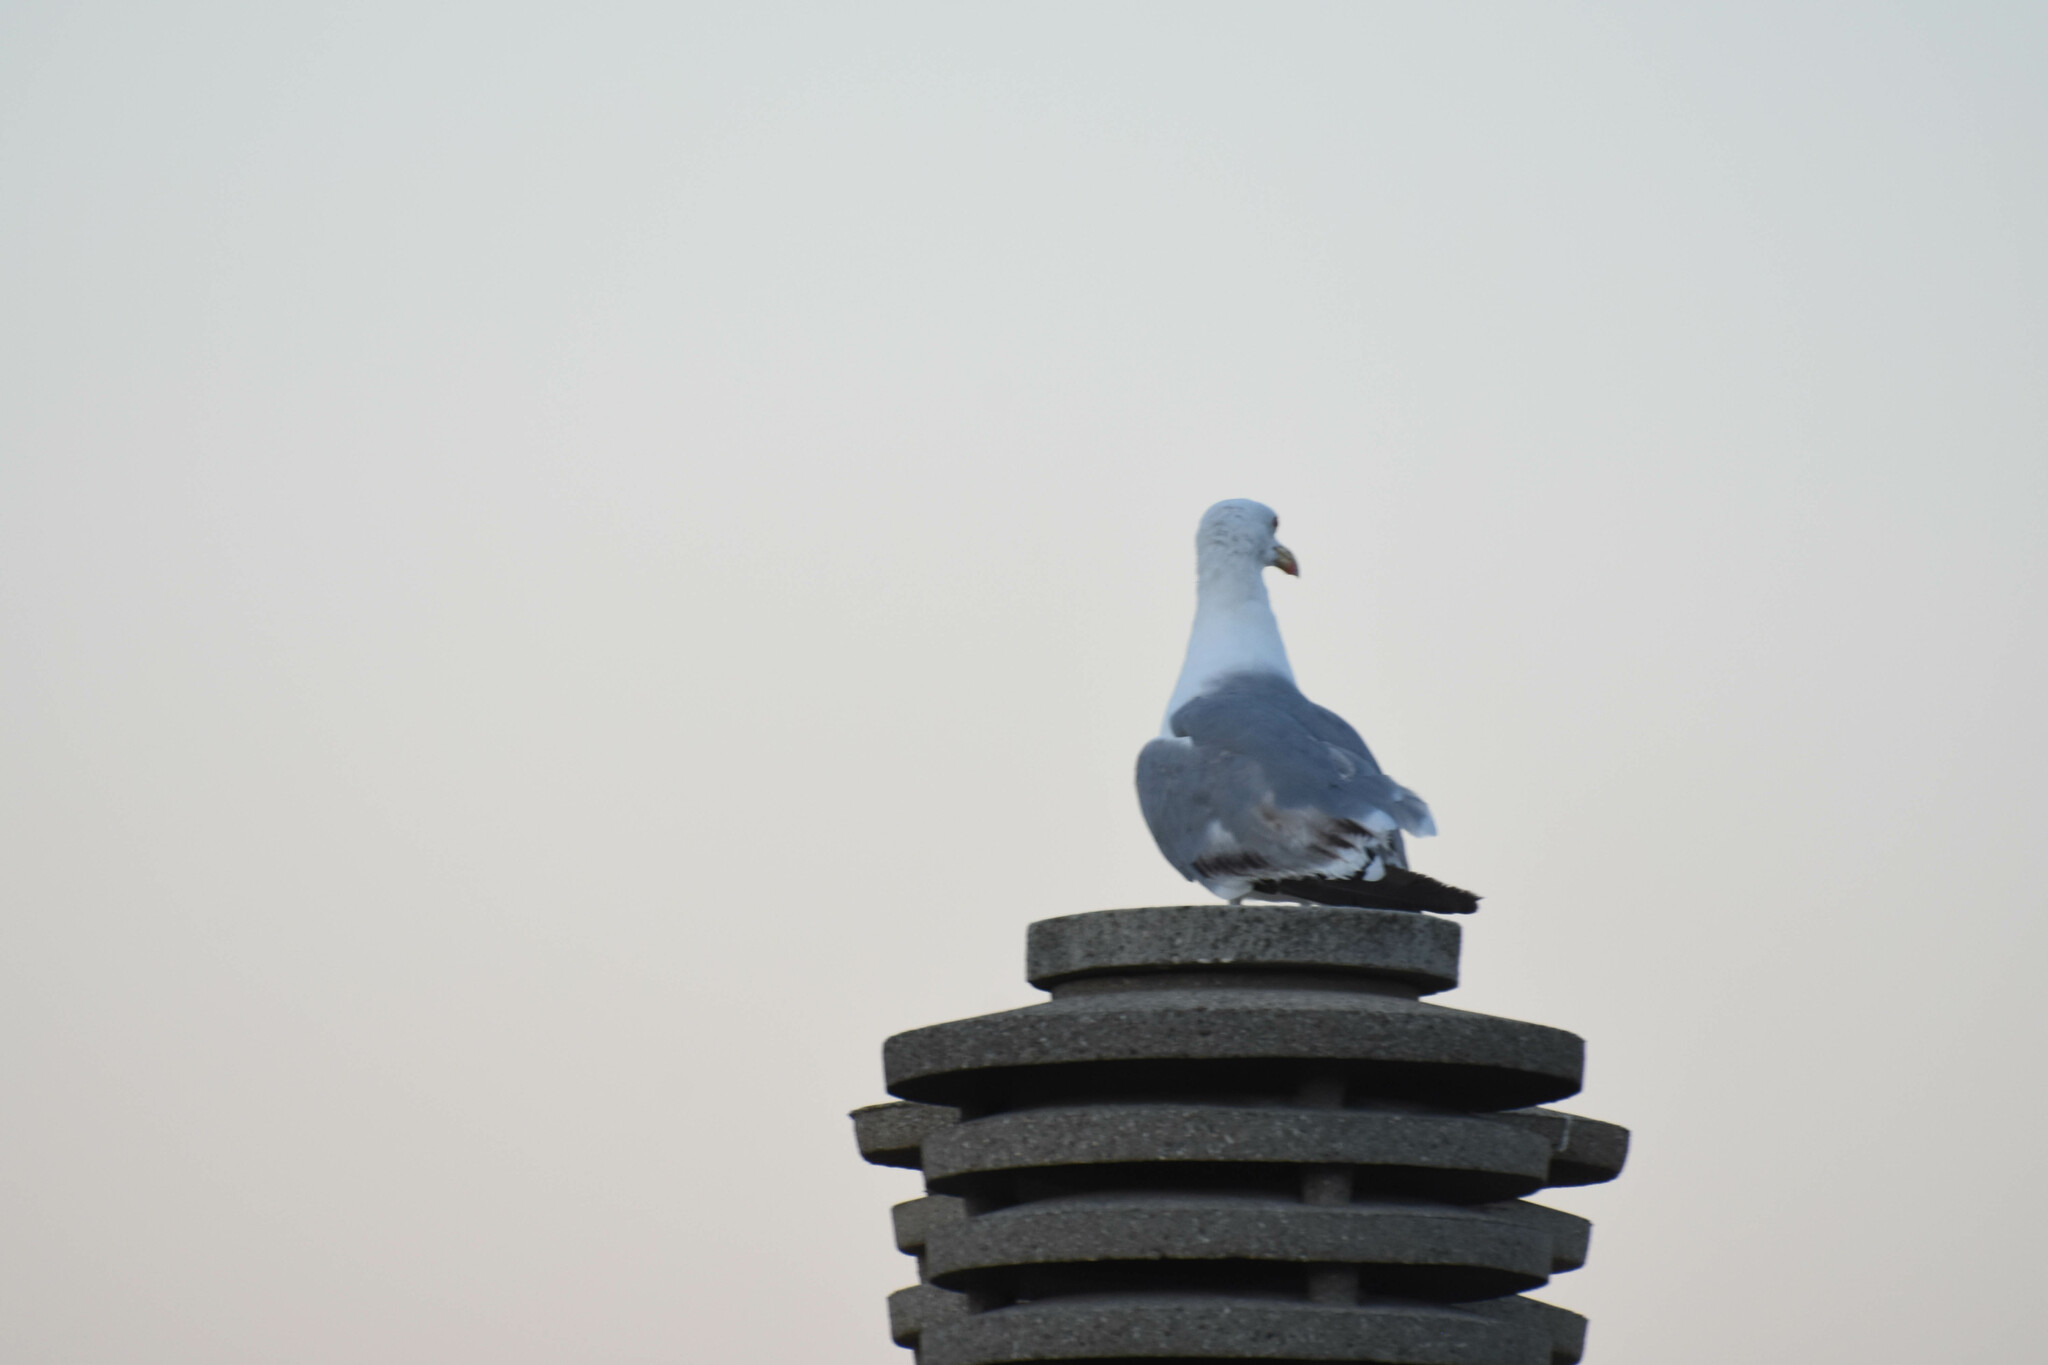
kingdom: Animalia
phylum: Chordata
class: Aves
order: Charadriiformes
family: Laridae
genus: Larus
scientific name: Larus michahellis
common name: Yellow-legged gull
